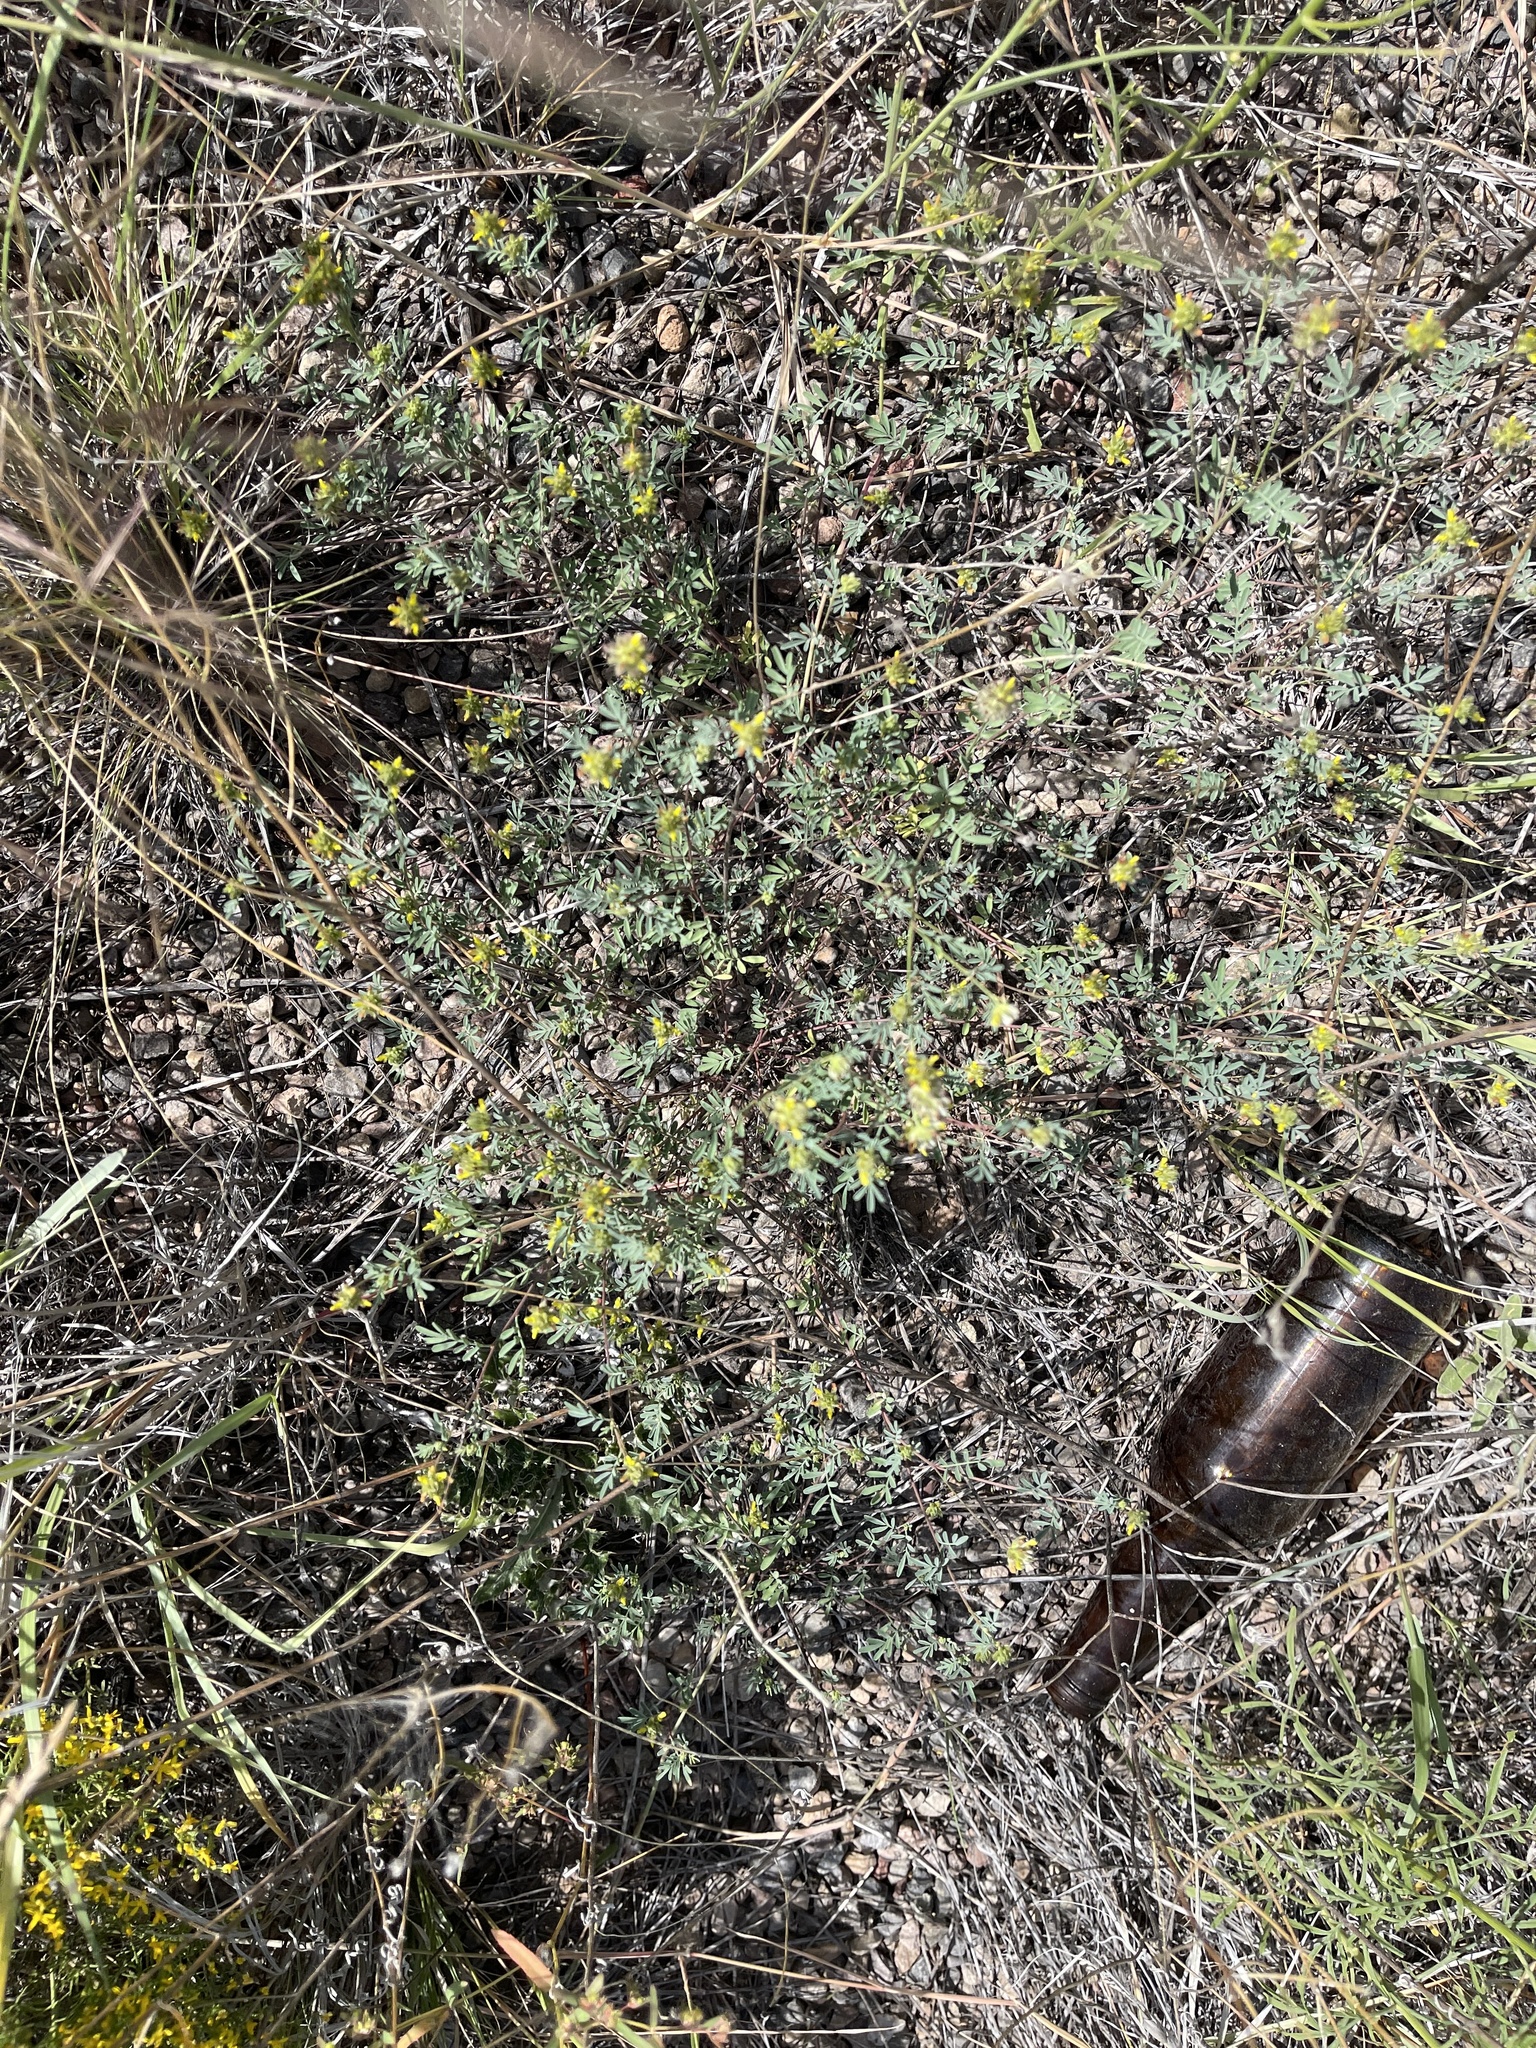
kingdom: Plantae
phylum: Tracheophyta
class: Magnoliopsida
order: Fabales
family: Fabaceae
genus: Dalea
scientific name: Dalea brachystachya
